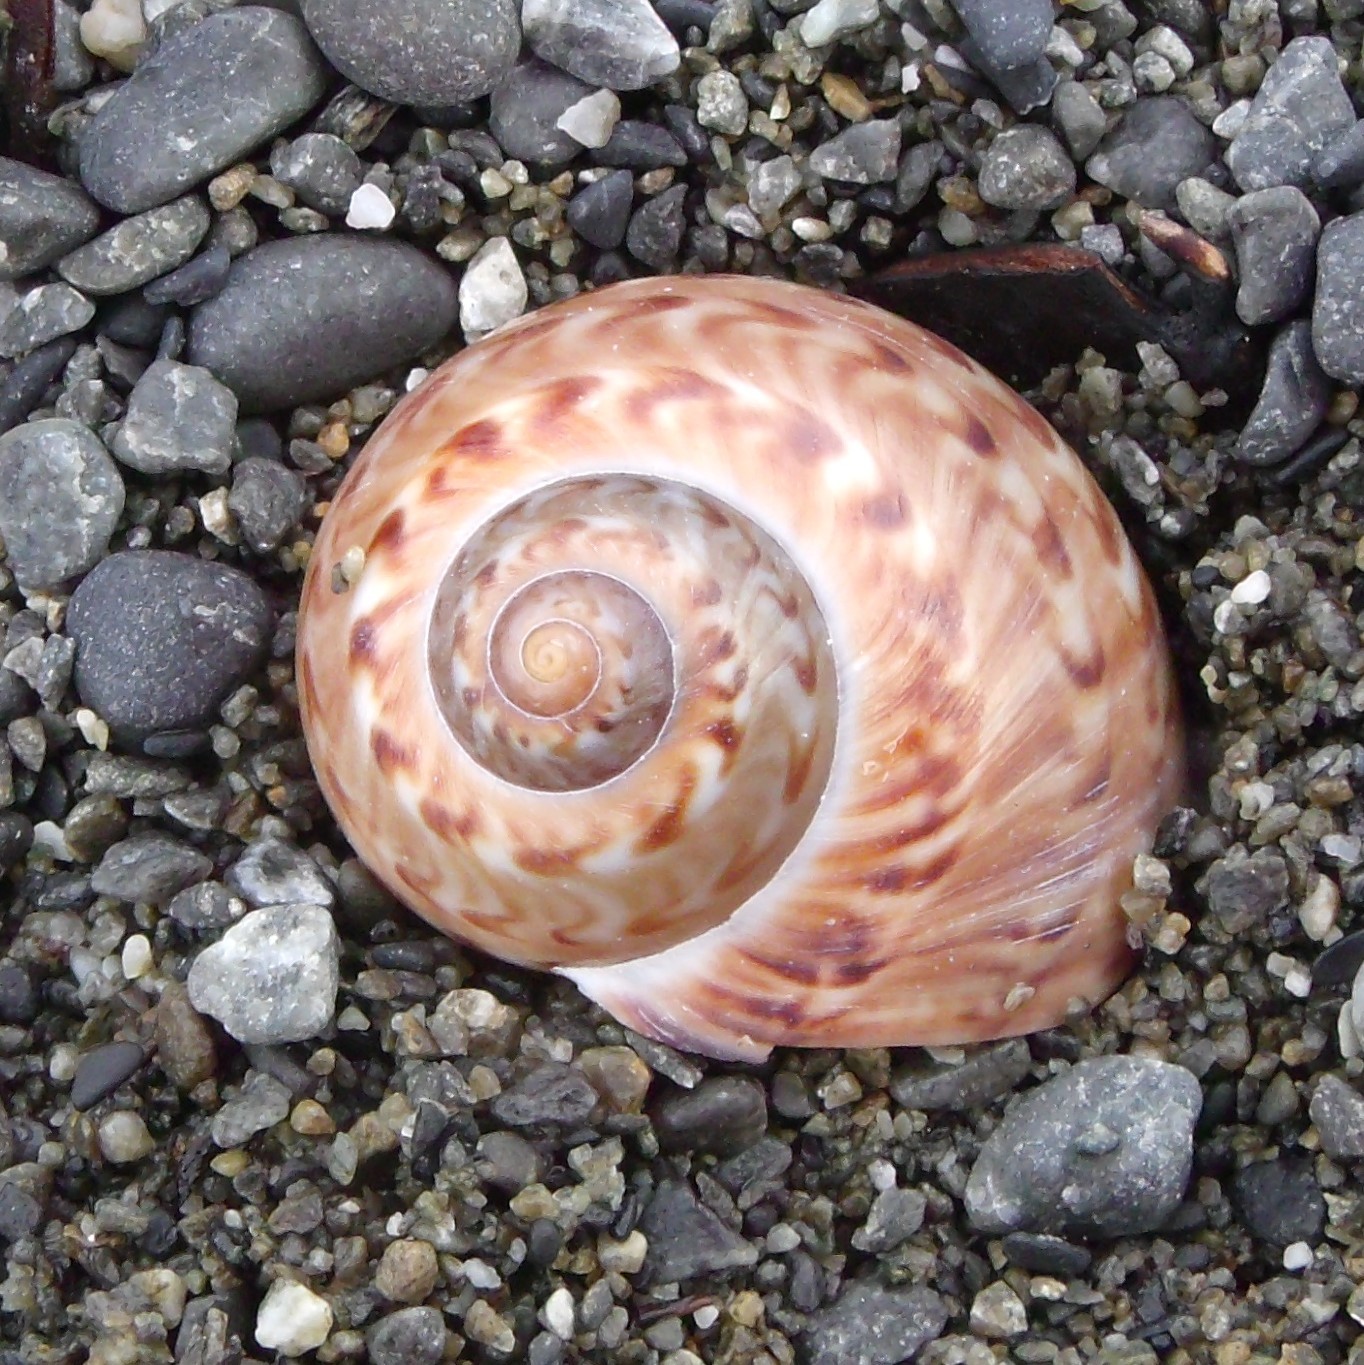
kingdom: Animalia
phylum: Mollusca
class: Gastropoda
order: Littorinimorpha
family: Naticidae
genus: Tanea
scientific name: Tanea zelandica
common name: New zealand moonsnail
